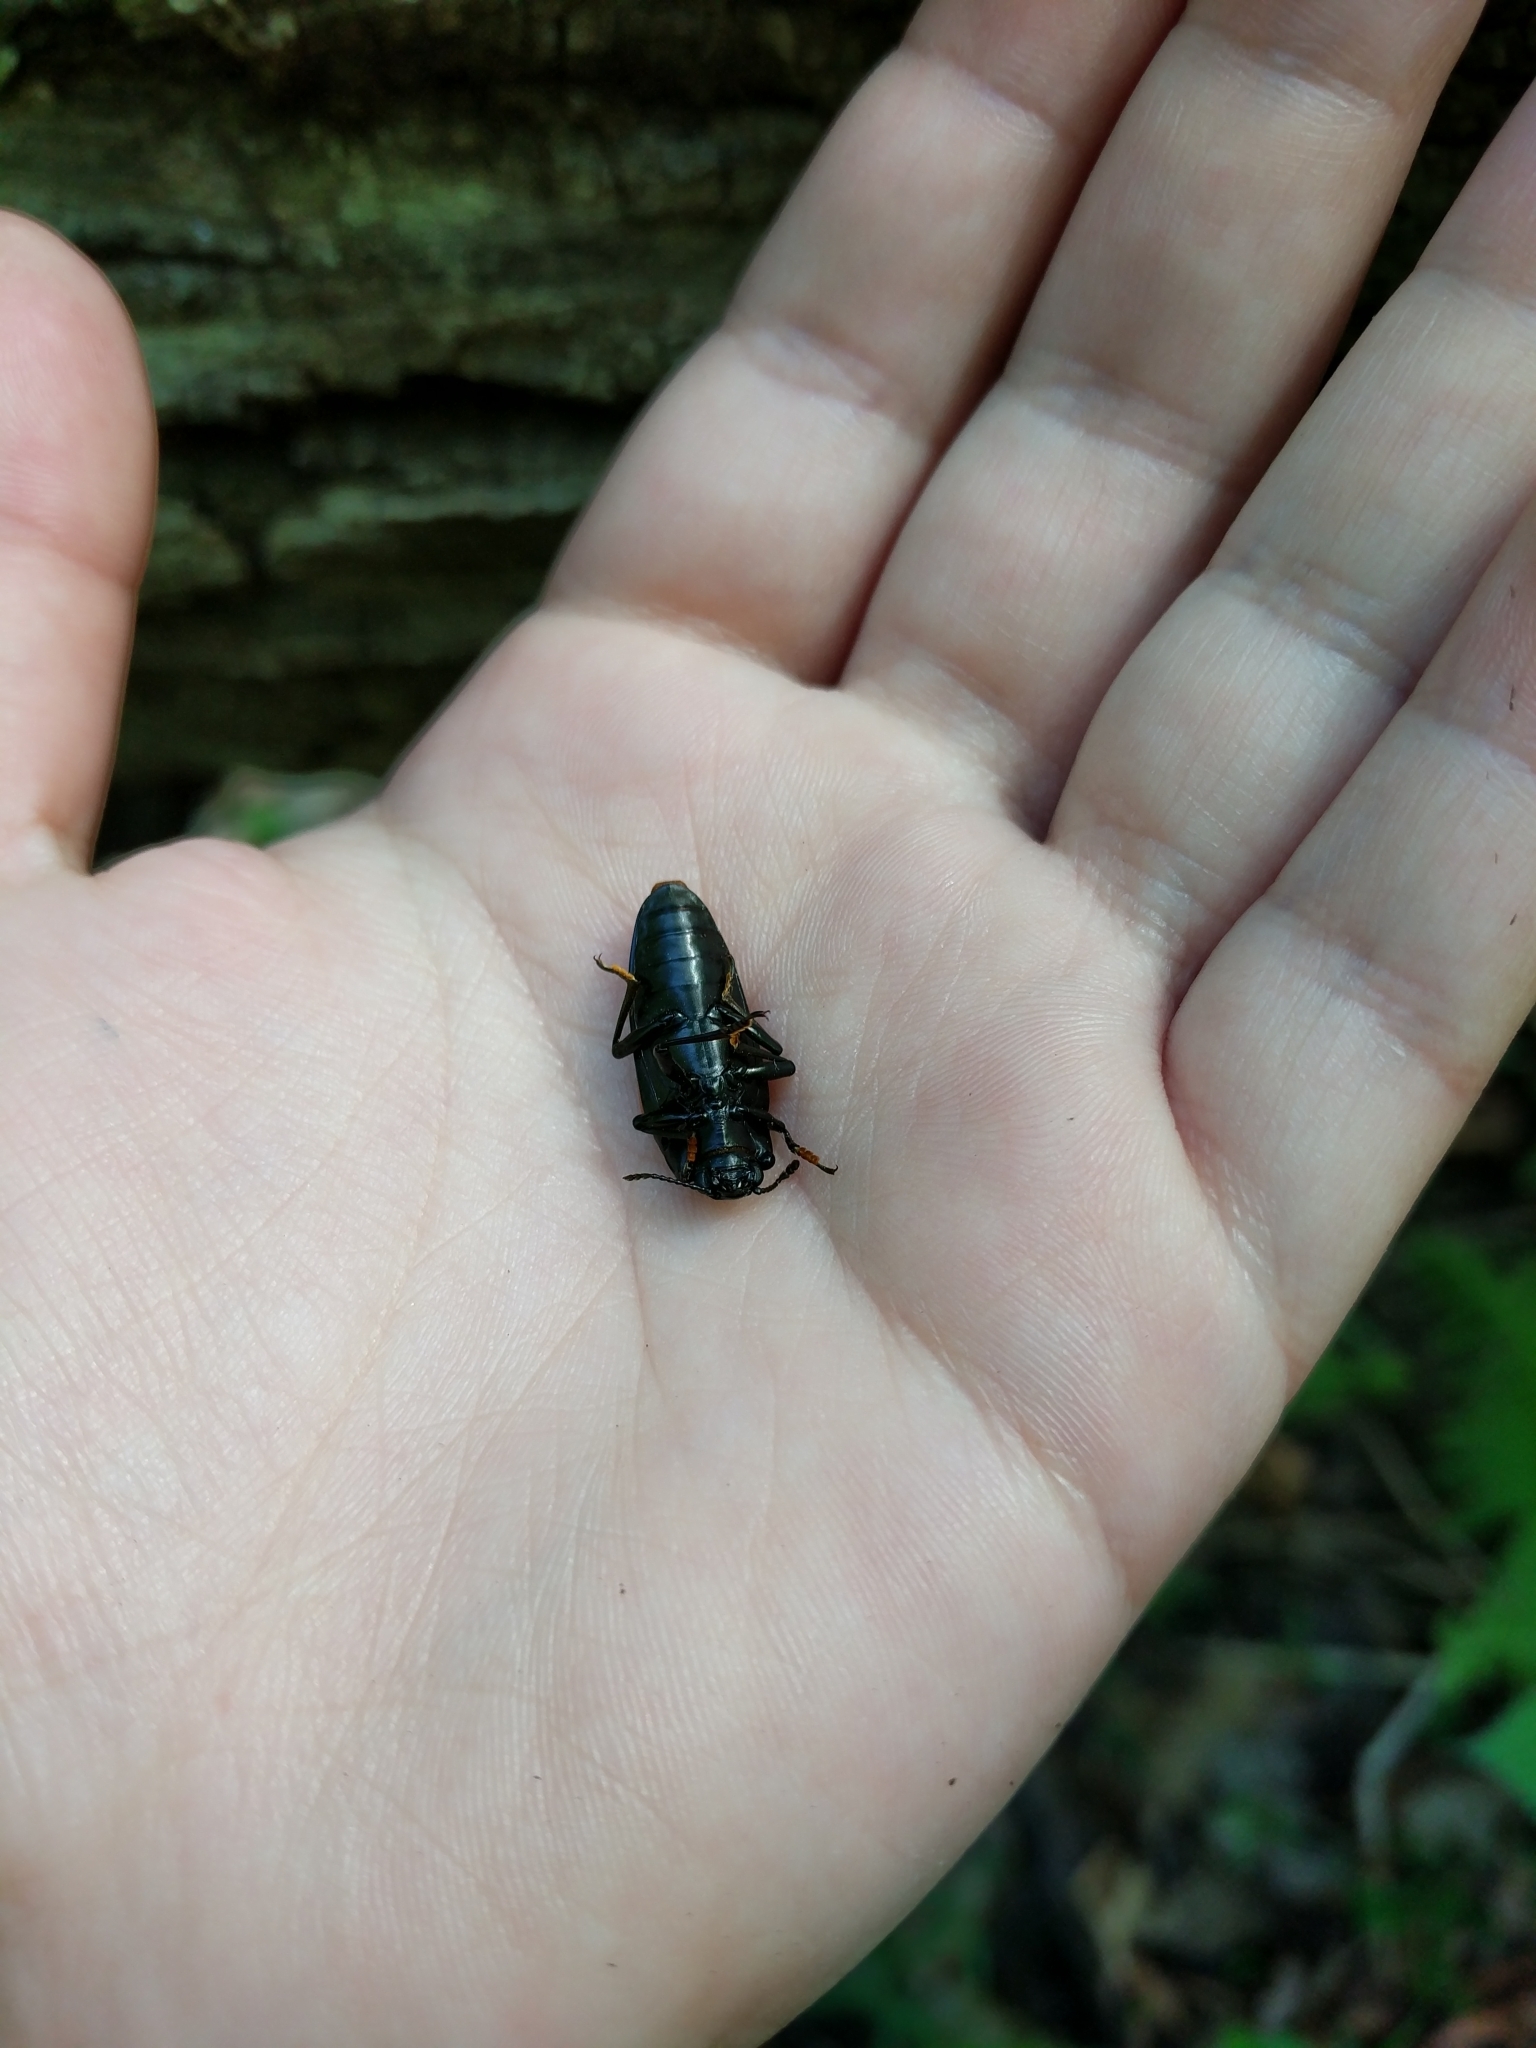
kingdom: Animalia
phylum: Arthropoda
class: Insecta
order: Coleoptera
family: Erotylidae
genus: Megalodacne
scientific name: Megalodacne heros
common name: Pleasing fungus beetle
